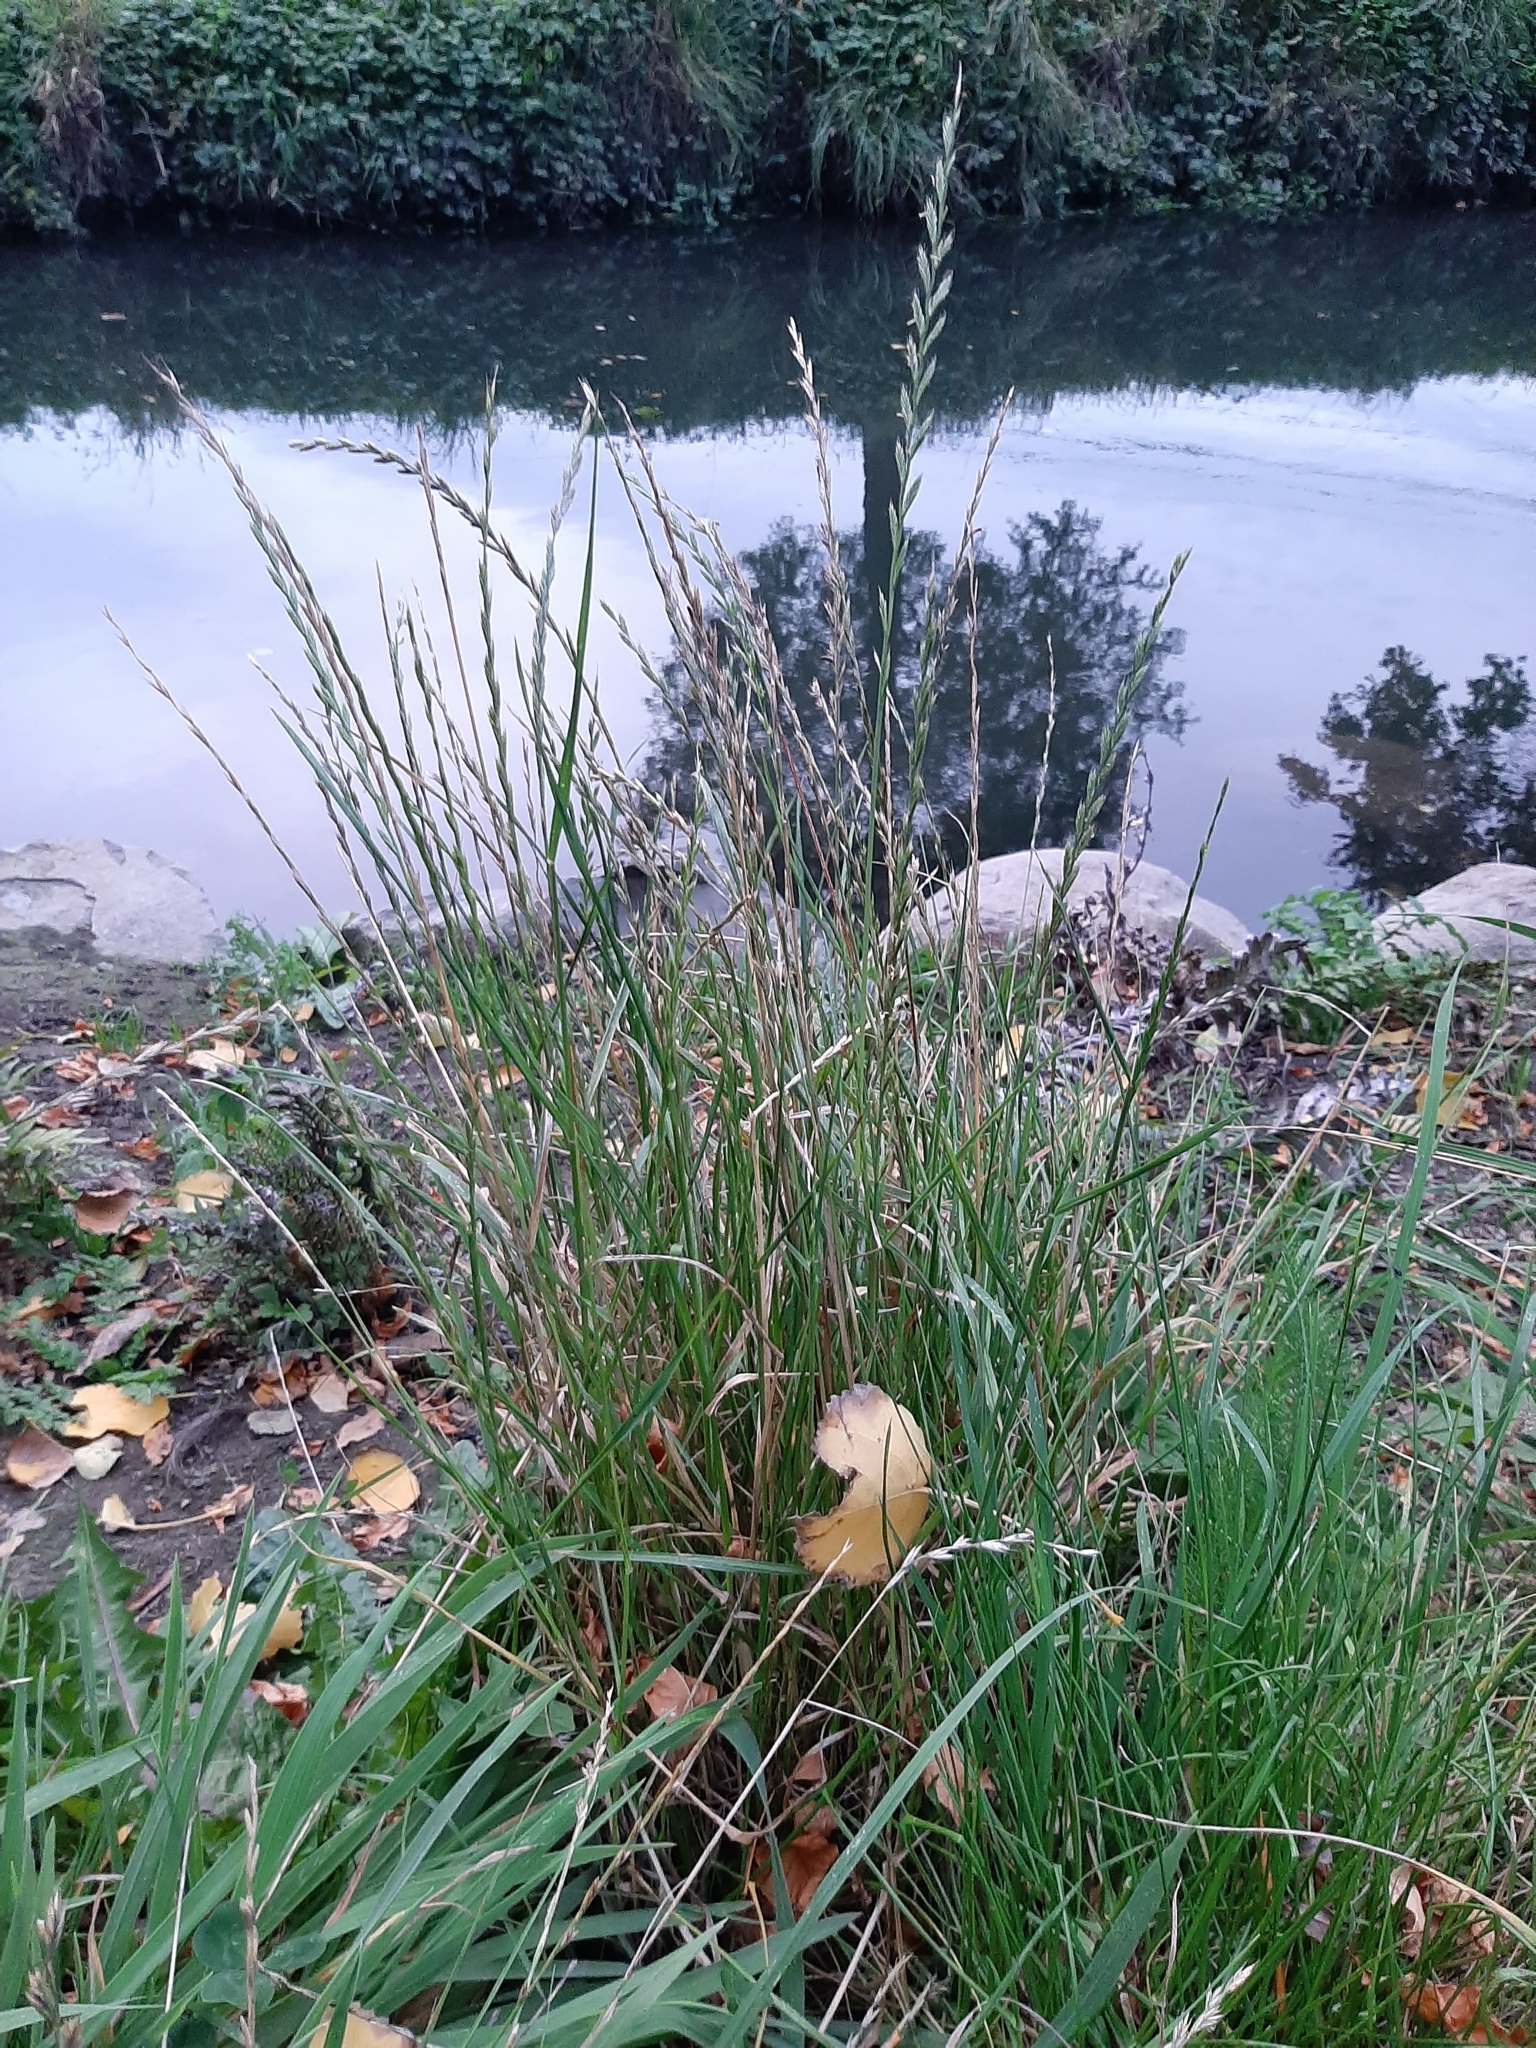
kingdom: Plantae
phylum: Tracheophyta
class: Liliopsida
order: Poales
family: Poaceae
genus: Lolium
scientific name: Lolium perenne
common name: Perennial ryegrass
